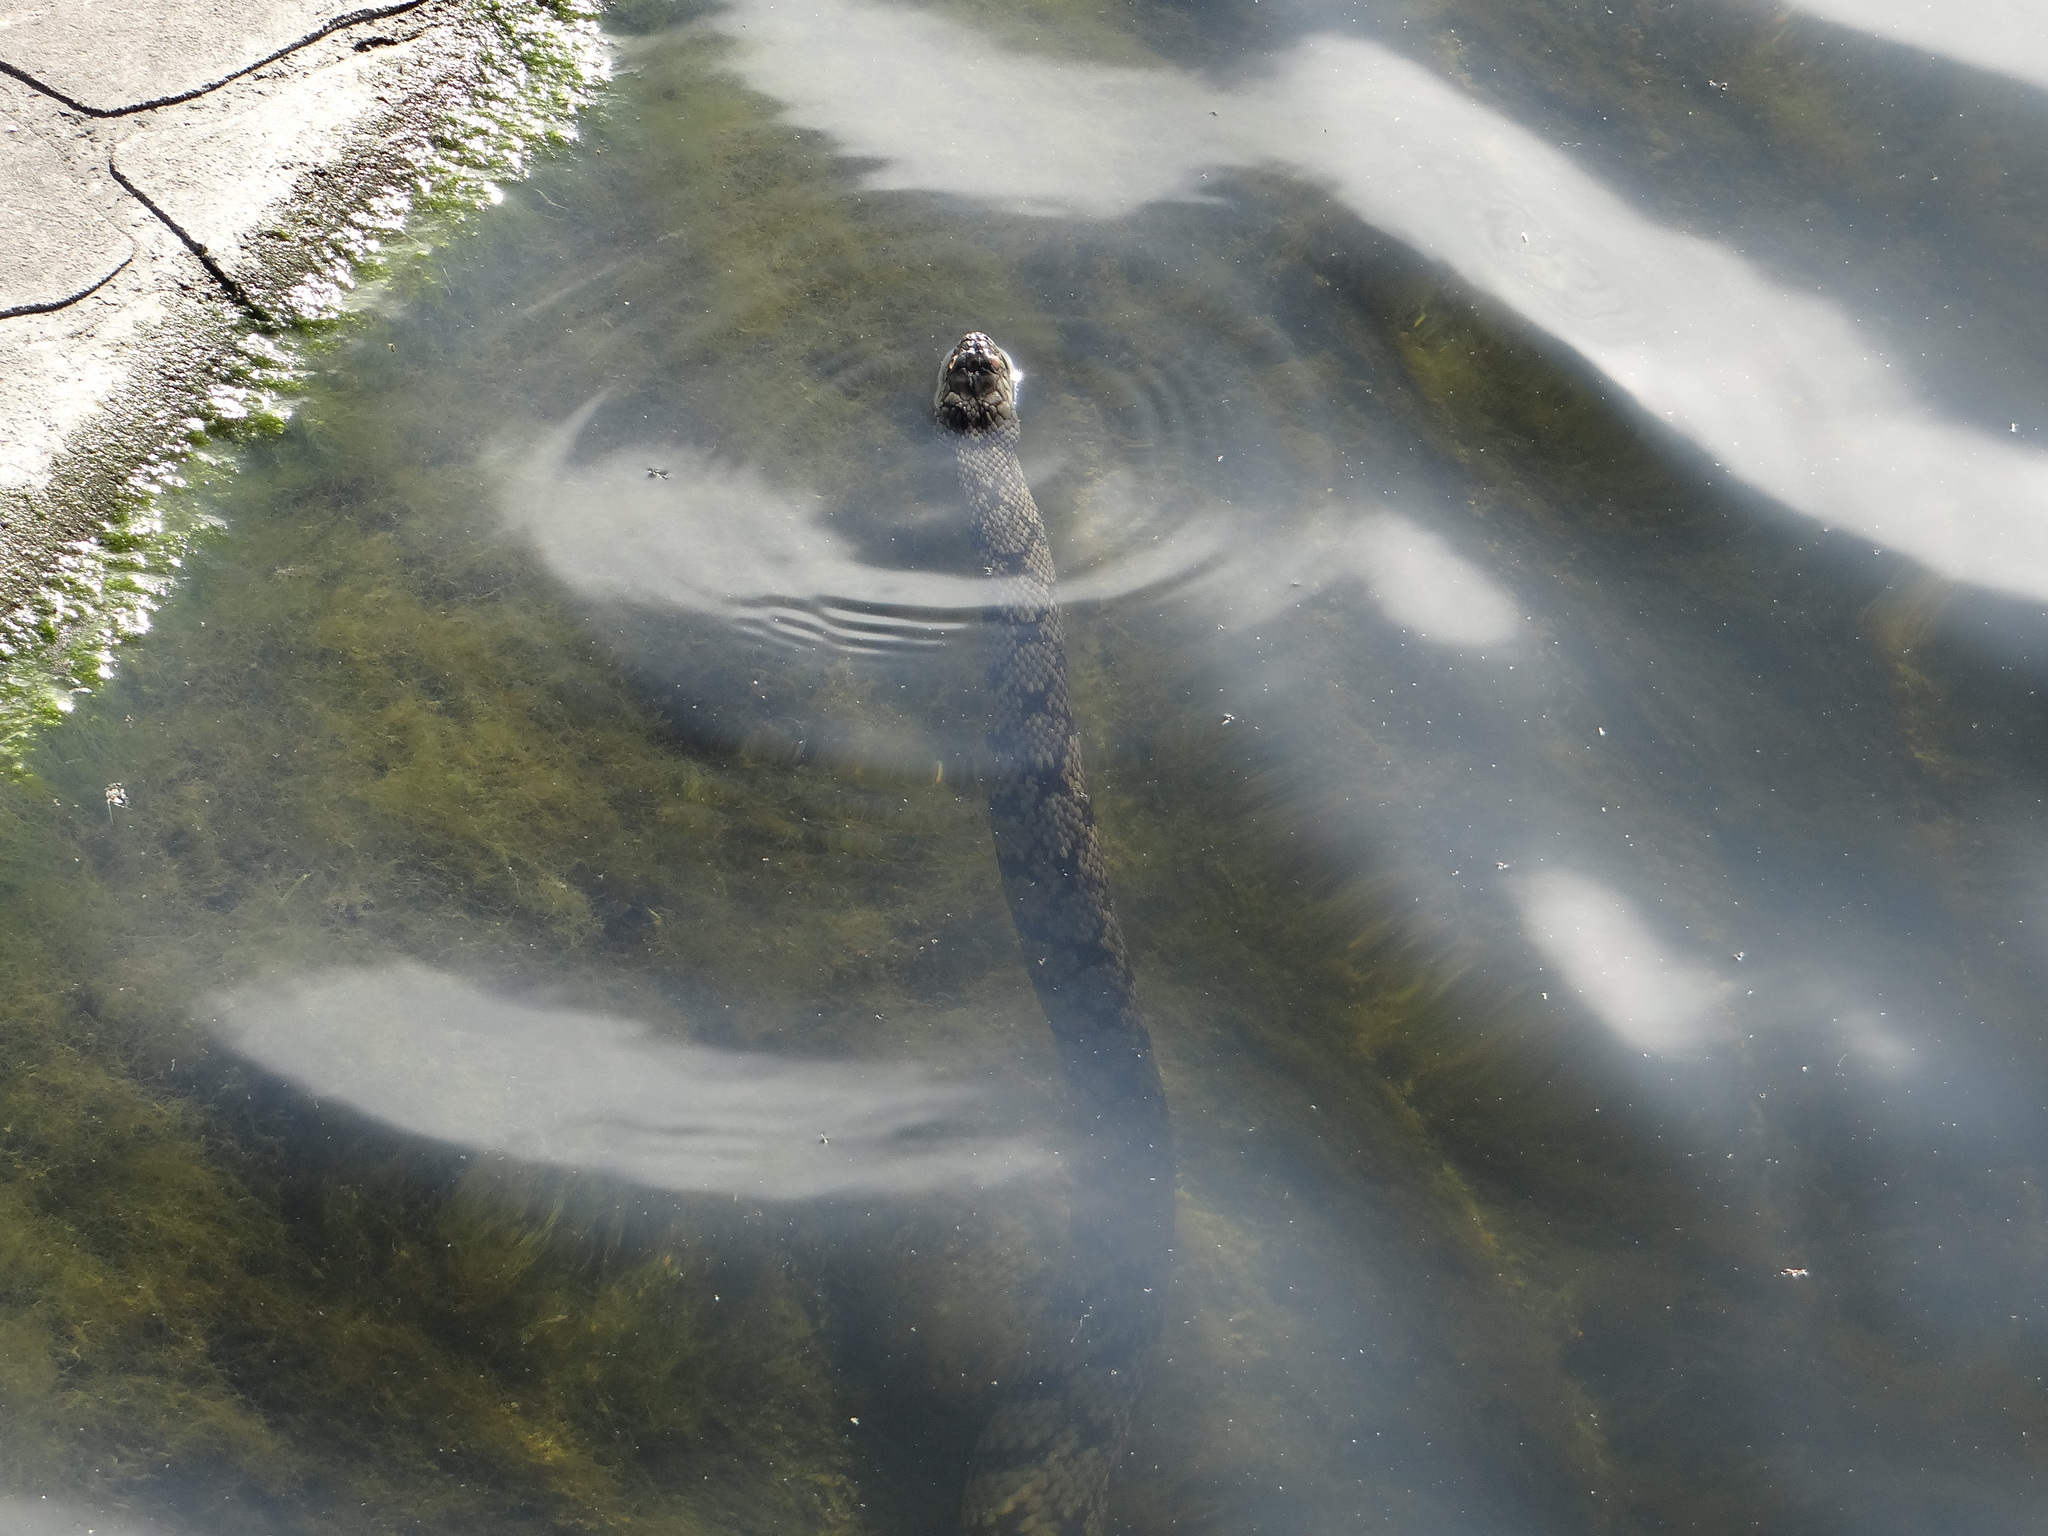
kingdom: Animalia
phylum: Chordata
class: Squamata
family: Colubridae
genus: Nerodia
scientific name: Nerodia rhombifer
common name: Diamondback water snake
